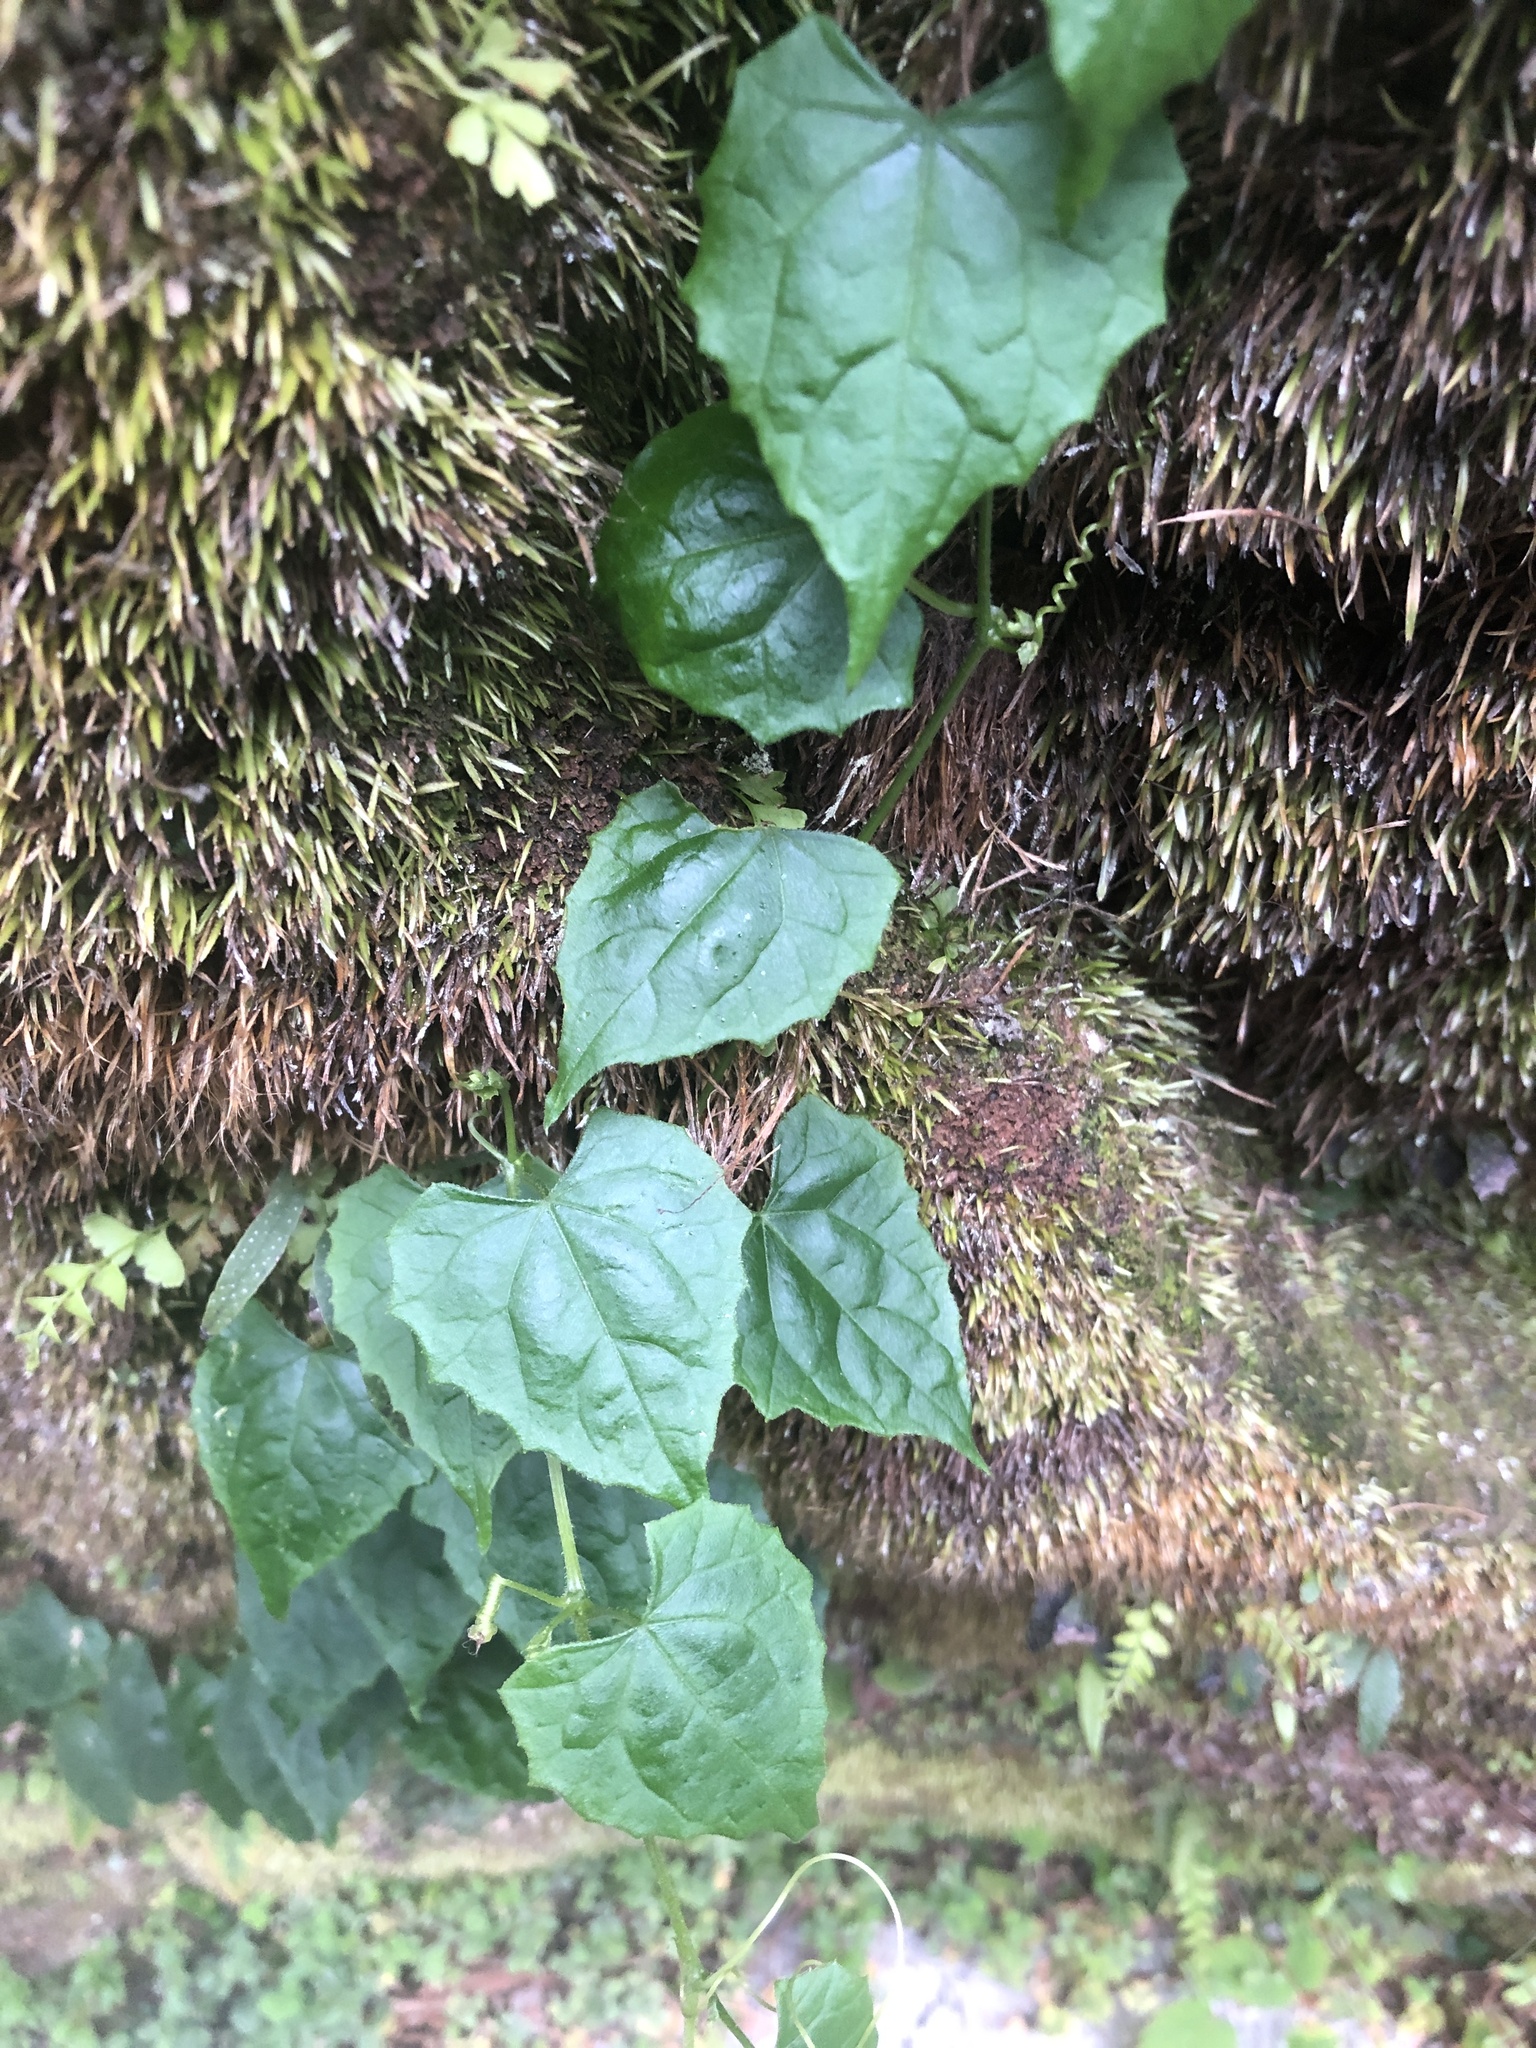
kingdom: Plantae
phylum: Tracheophyta
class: Magnoliopsida
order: Cucurbitales
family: Cucurbitaceae
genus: Zehneria
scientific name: Zehneria guamensis
